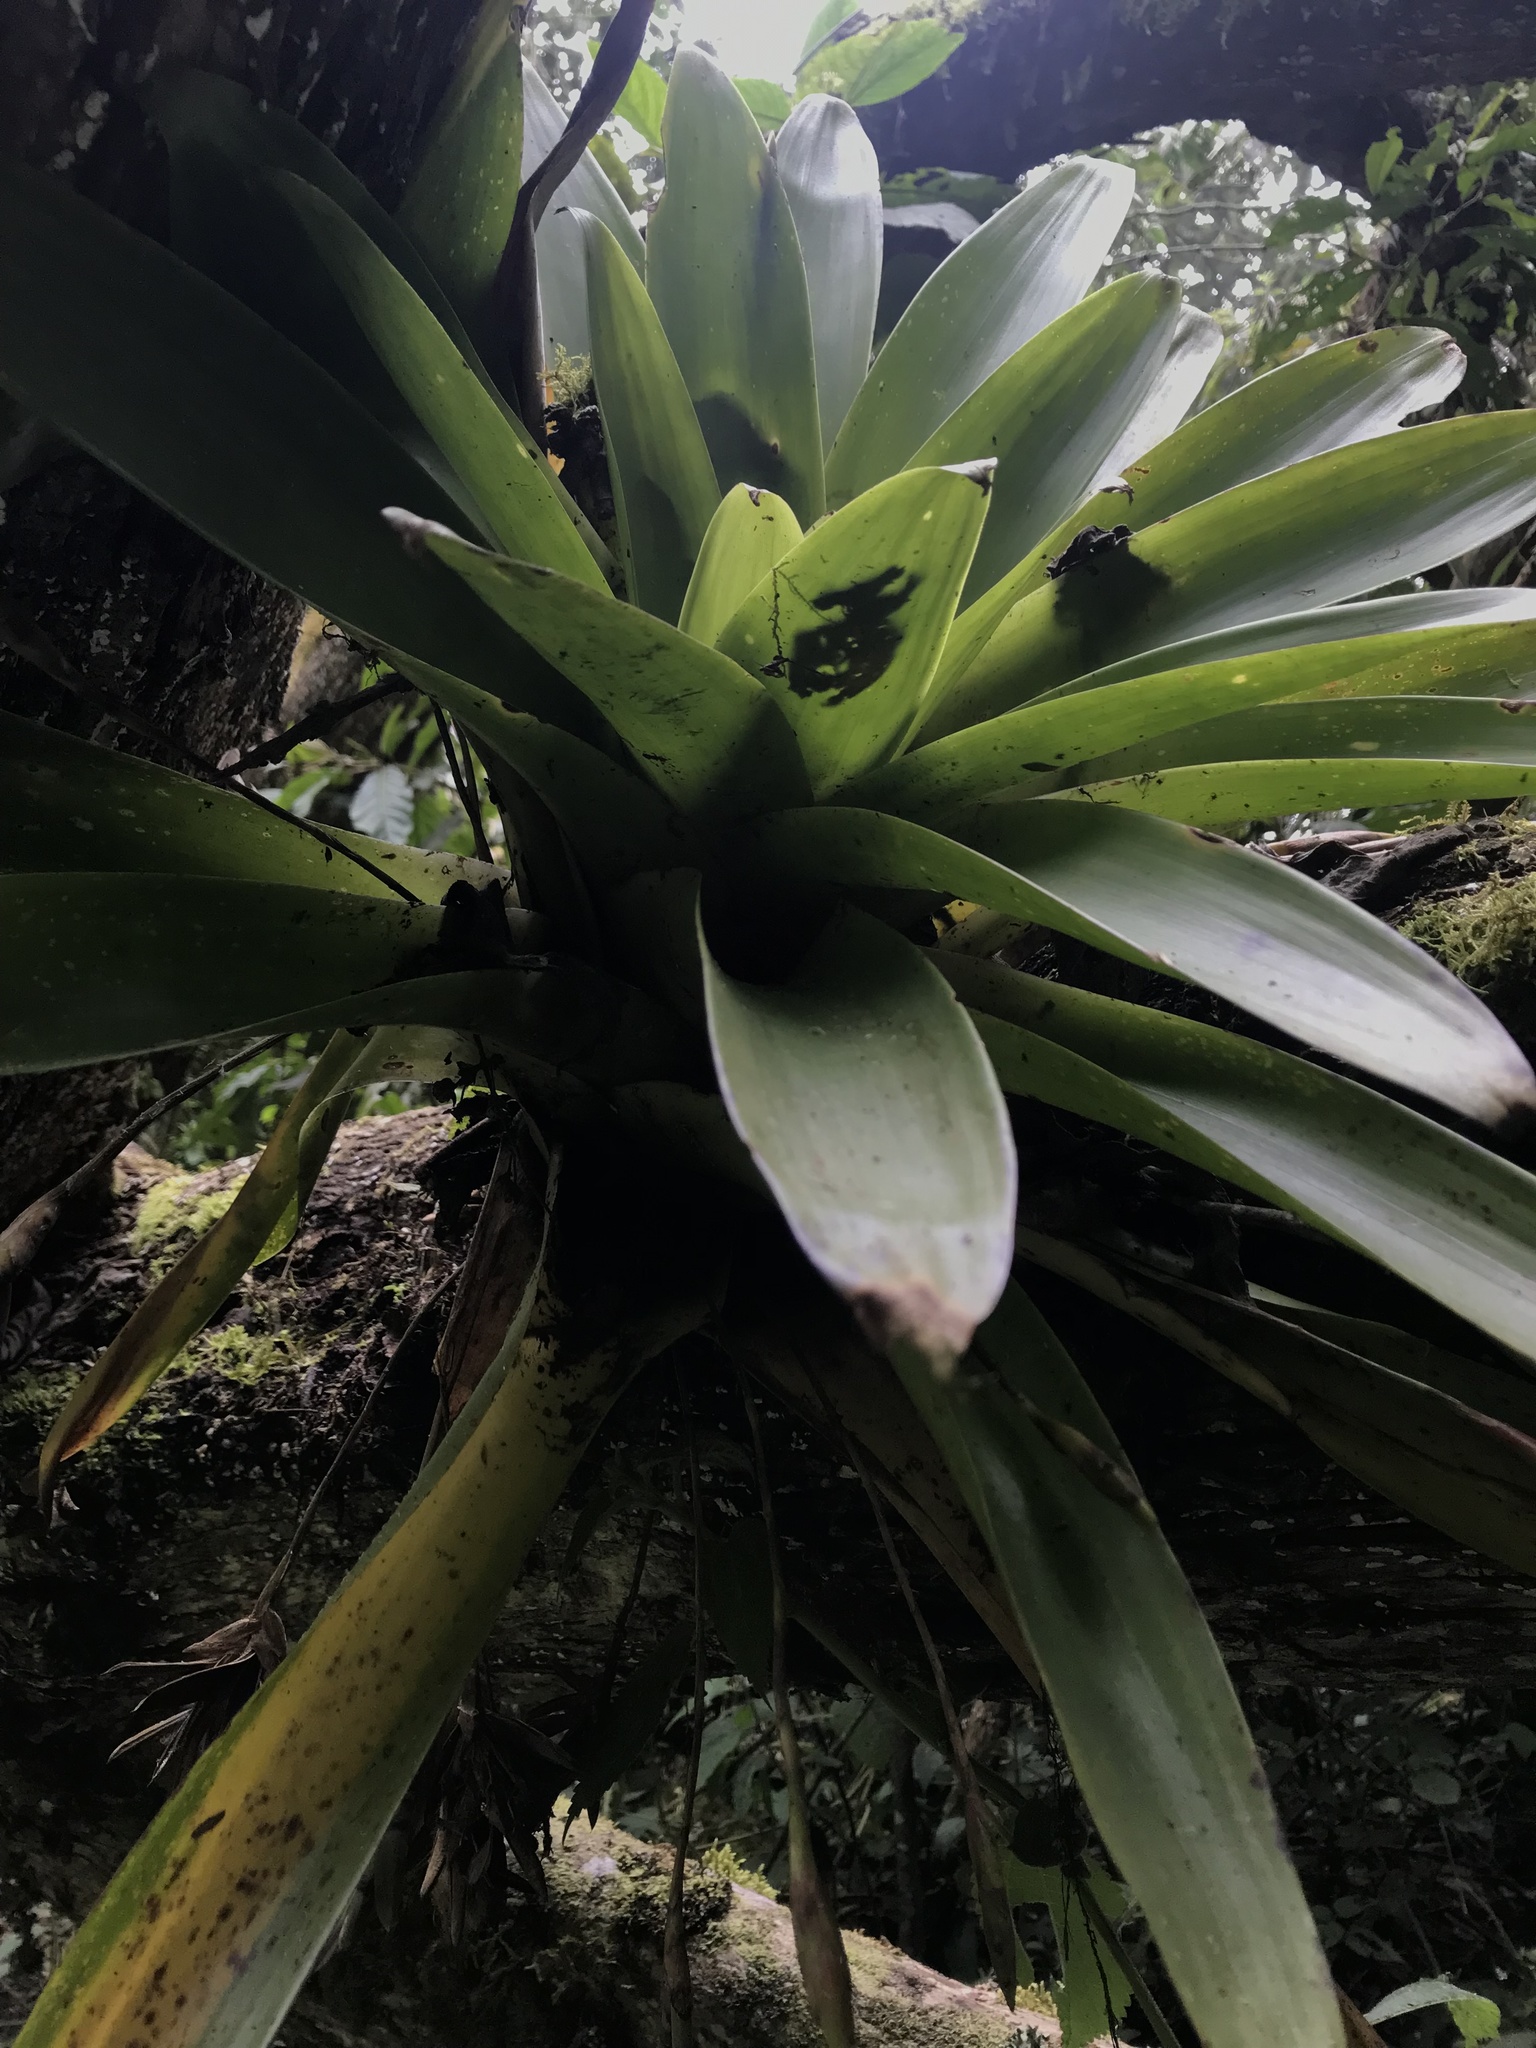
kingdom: Plantae
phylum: Tracheophyta
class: Liliopsida
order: Poales
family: Bromeliaceae
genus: Tillandsia
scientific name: Tillandsia complanata
